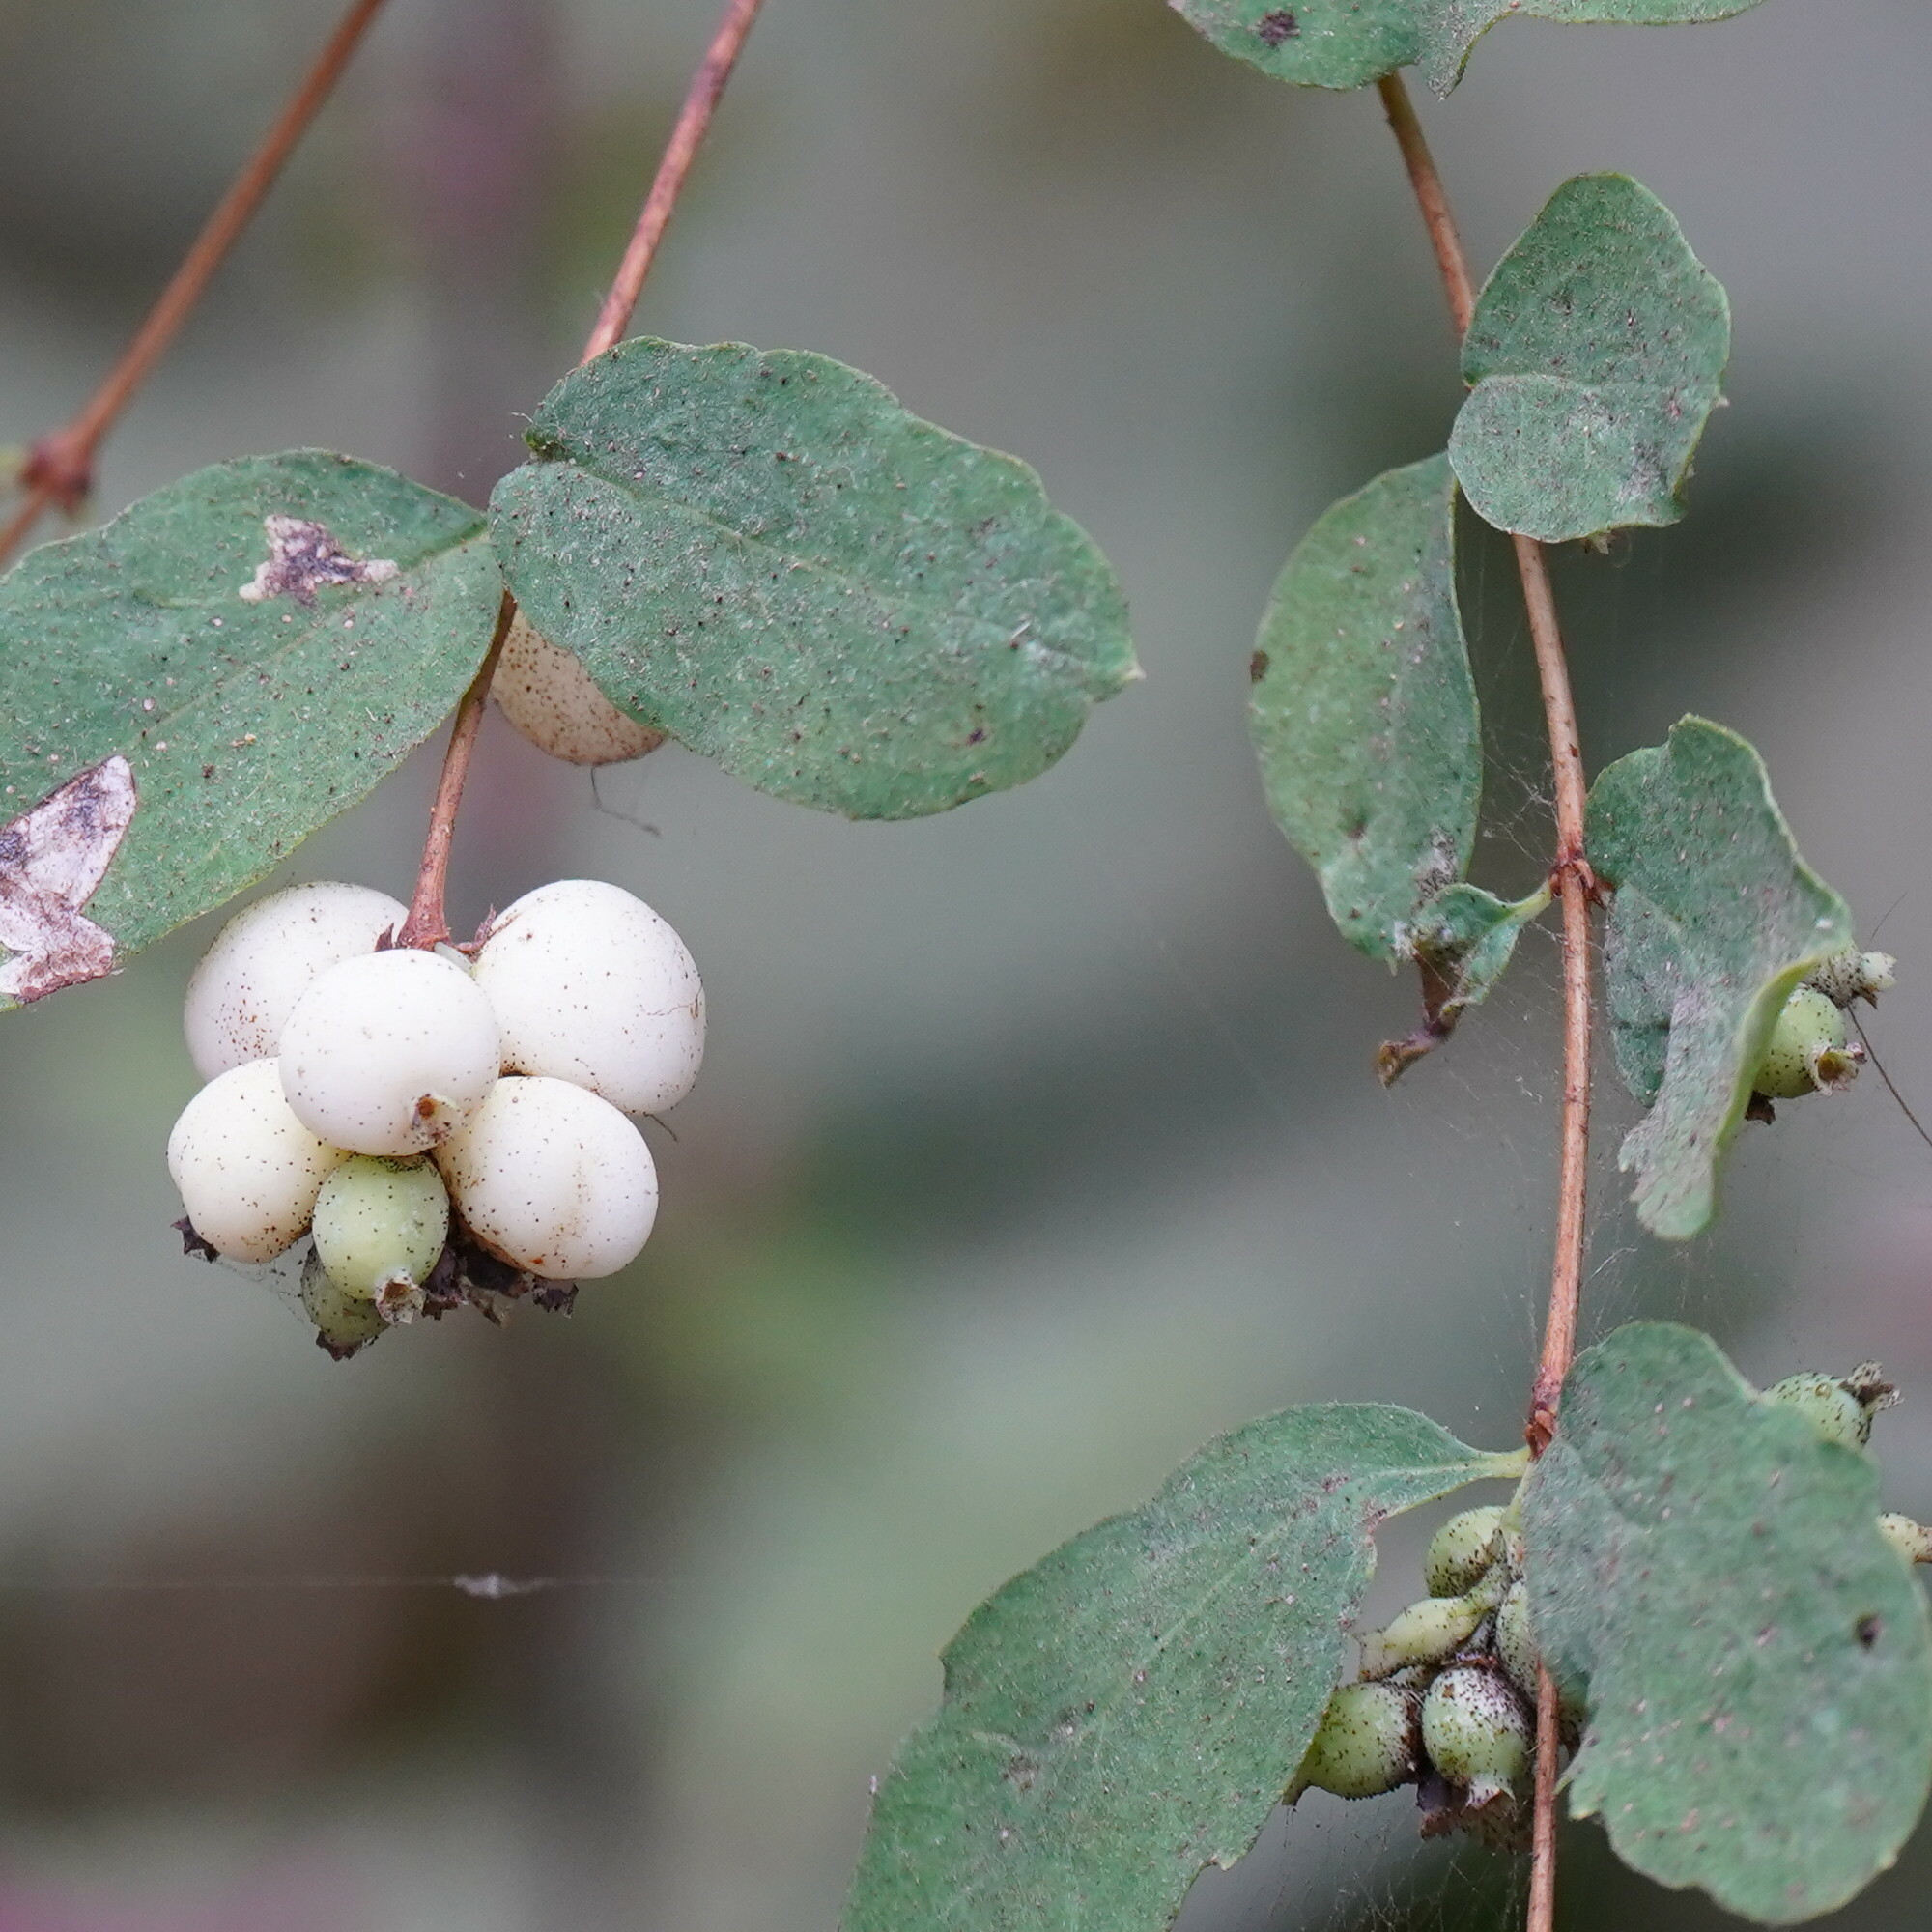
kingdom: Plantae
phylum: Tracheophyta
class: Magnoliopsida
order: Dipsacales
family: Caprifoliaceae
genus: Symphoricarpos
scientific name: Symphoricarpos albus
